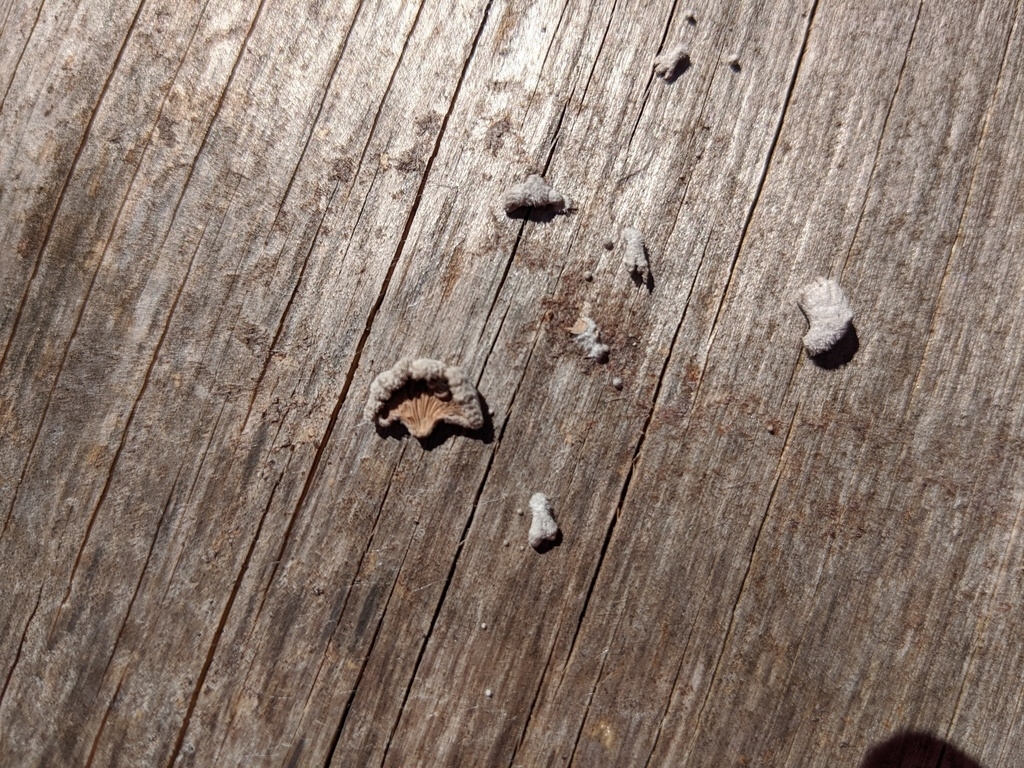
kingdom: Fungi
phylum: Basidiomycota
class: Agaricomycetes
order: Agaricales
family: Schizophyllaceae
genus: Schizophyllum
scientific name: Schizophyllum commune
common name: Common porecrust
